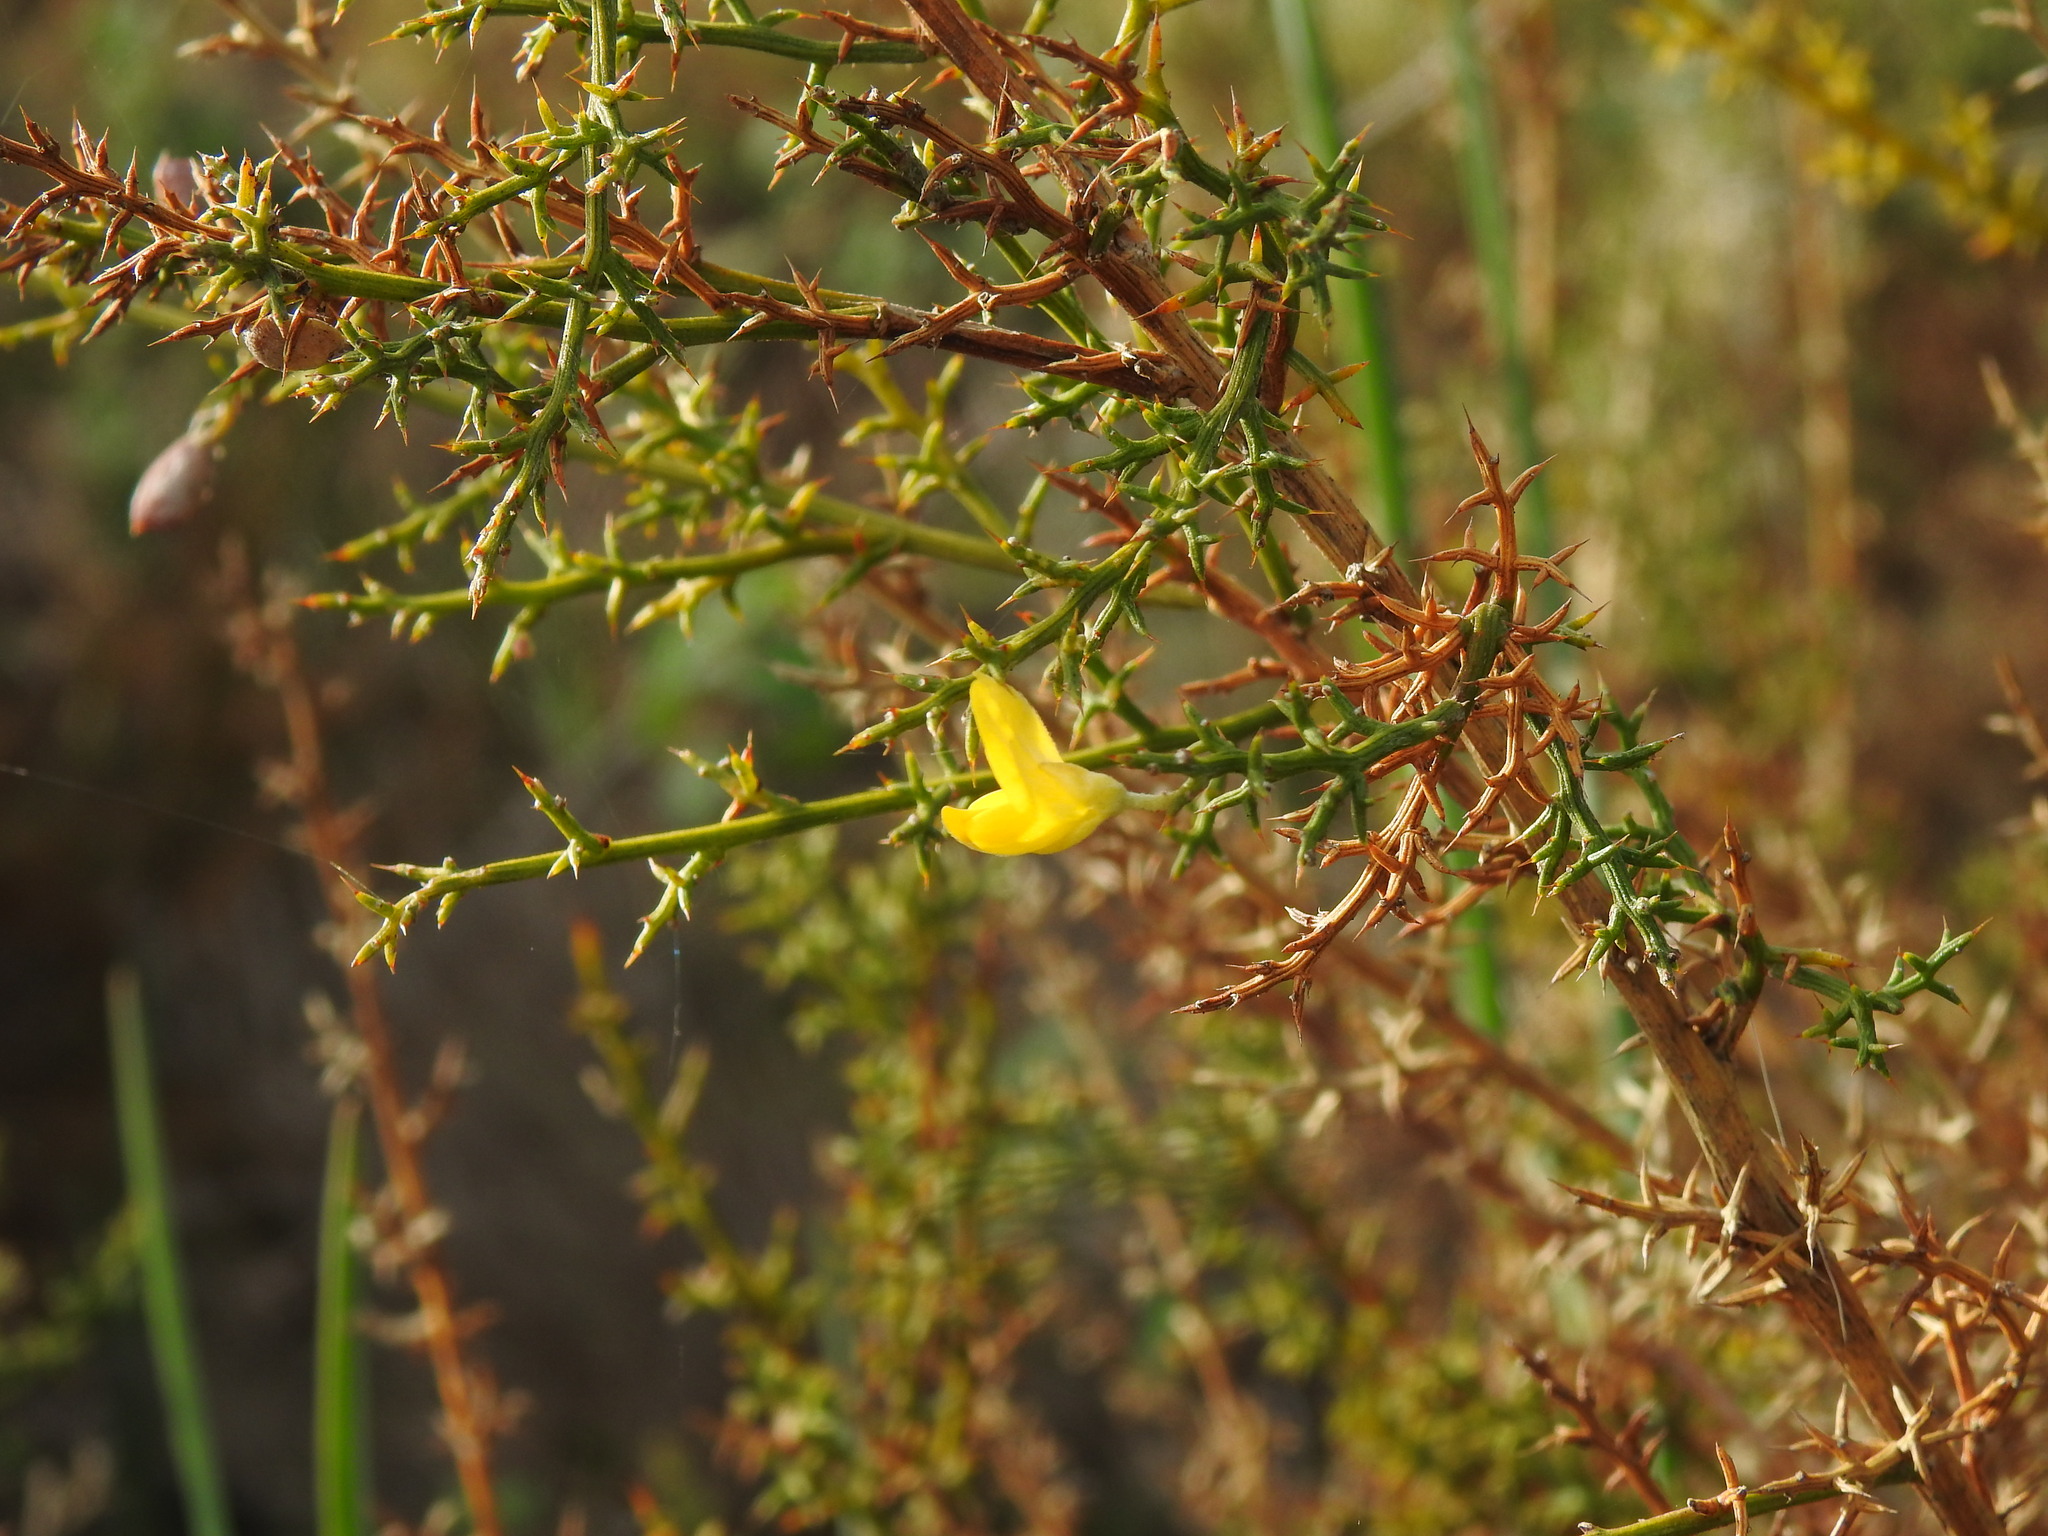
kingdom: Plantae
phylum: Tracheophyta
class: Magnoliopsida
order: Fabales
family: Fabaceae
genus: Stauracanthus
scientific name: Stauracanthus boivinii
